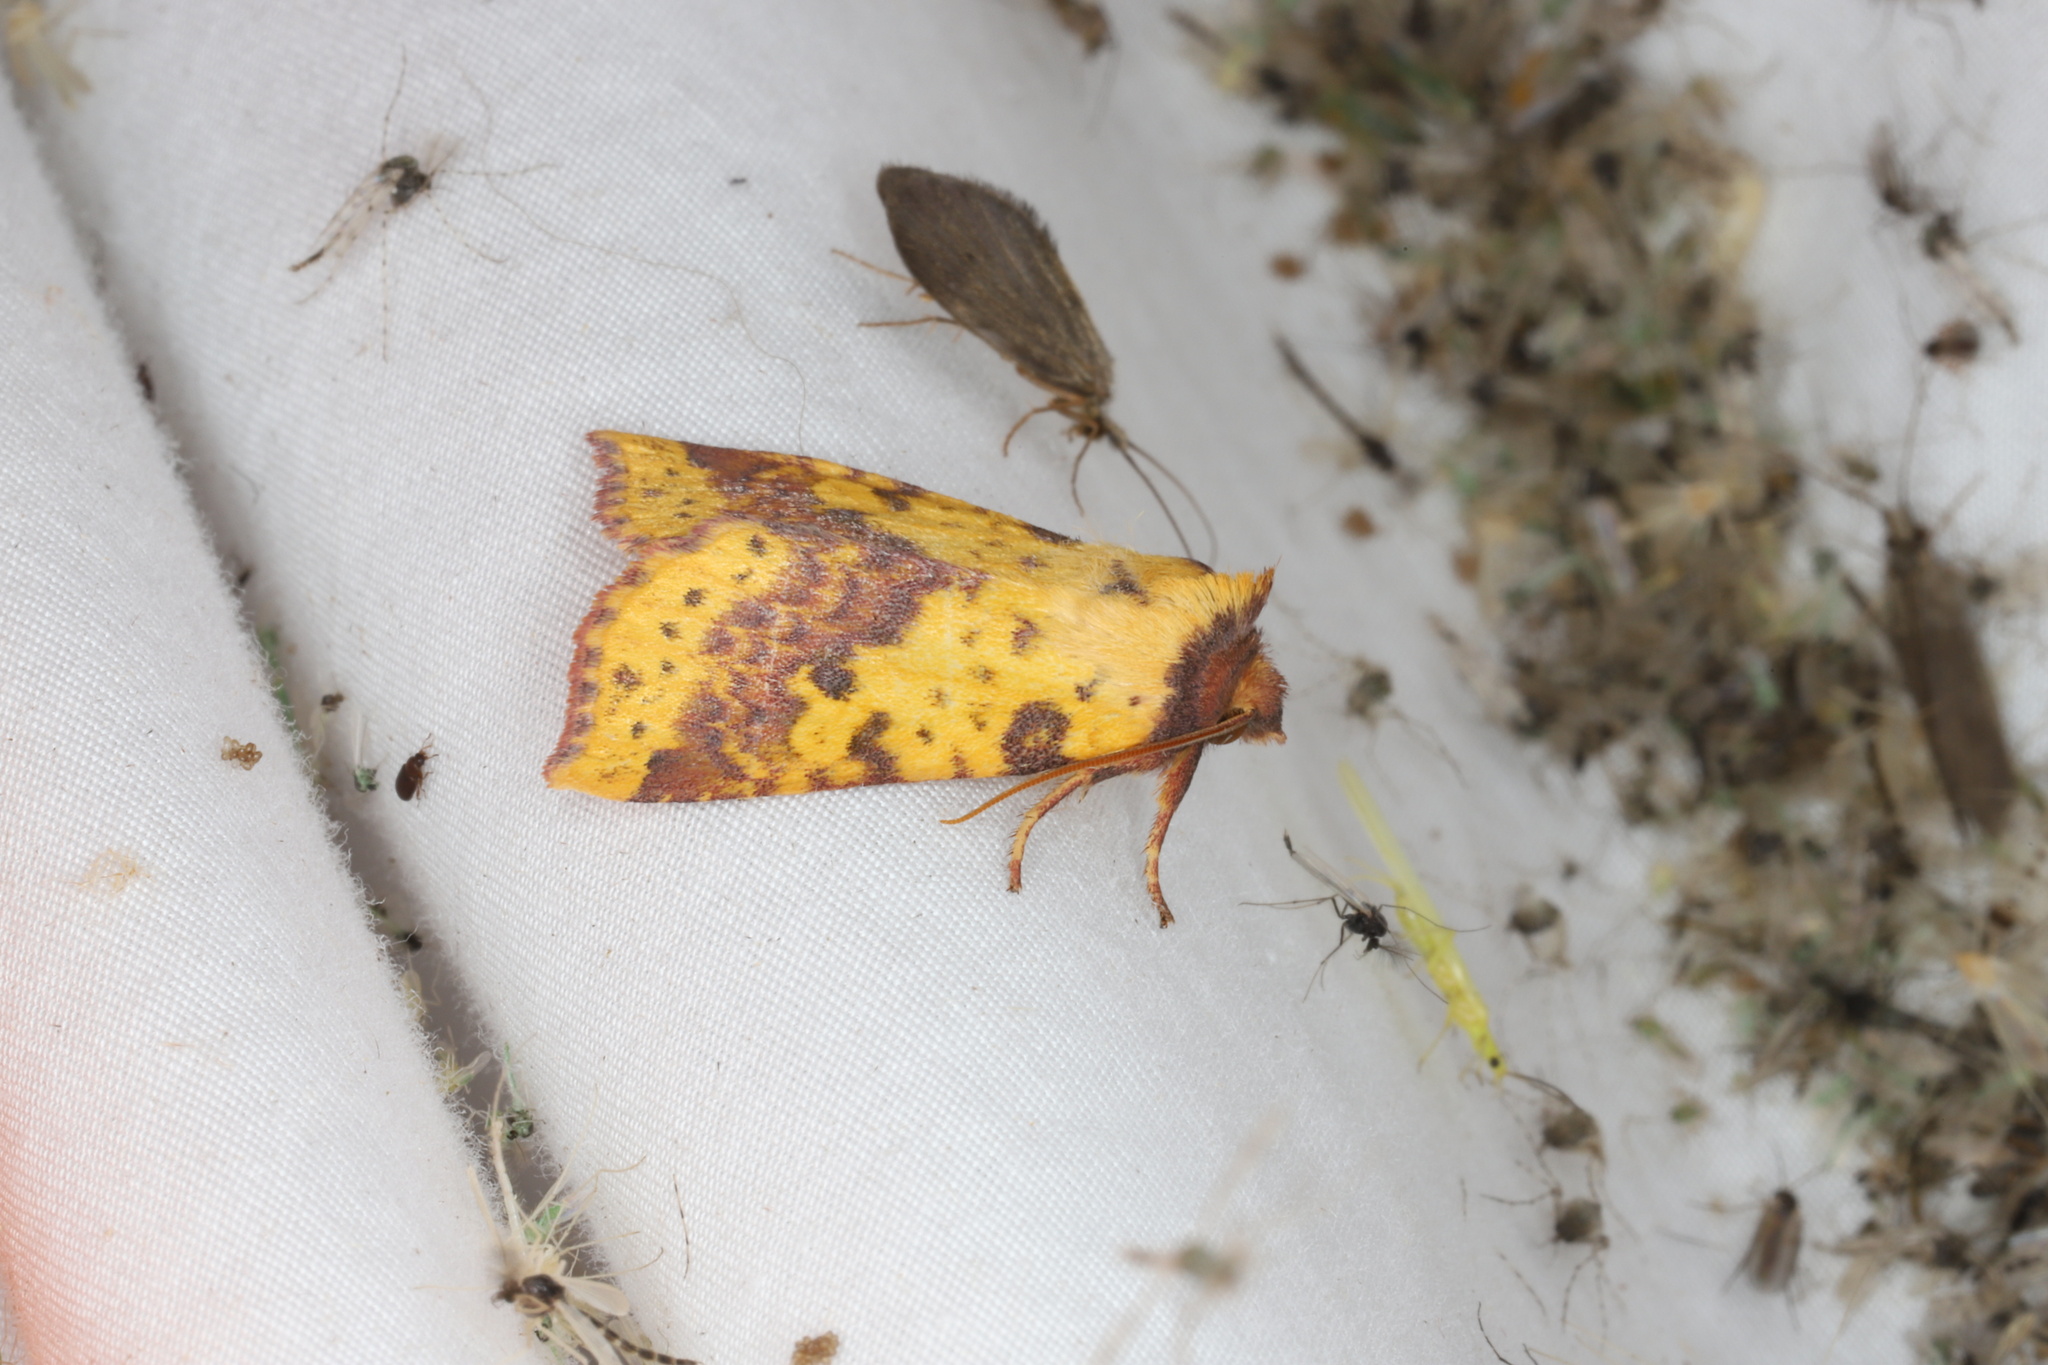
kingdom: Animalia
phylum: Arthropoda
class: Insecta
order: Lepidoptera
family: Noctuidae
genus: Xanthia
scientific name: Xanthia tatago
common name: Pink-banded sallow
